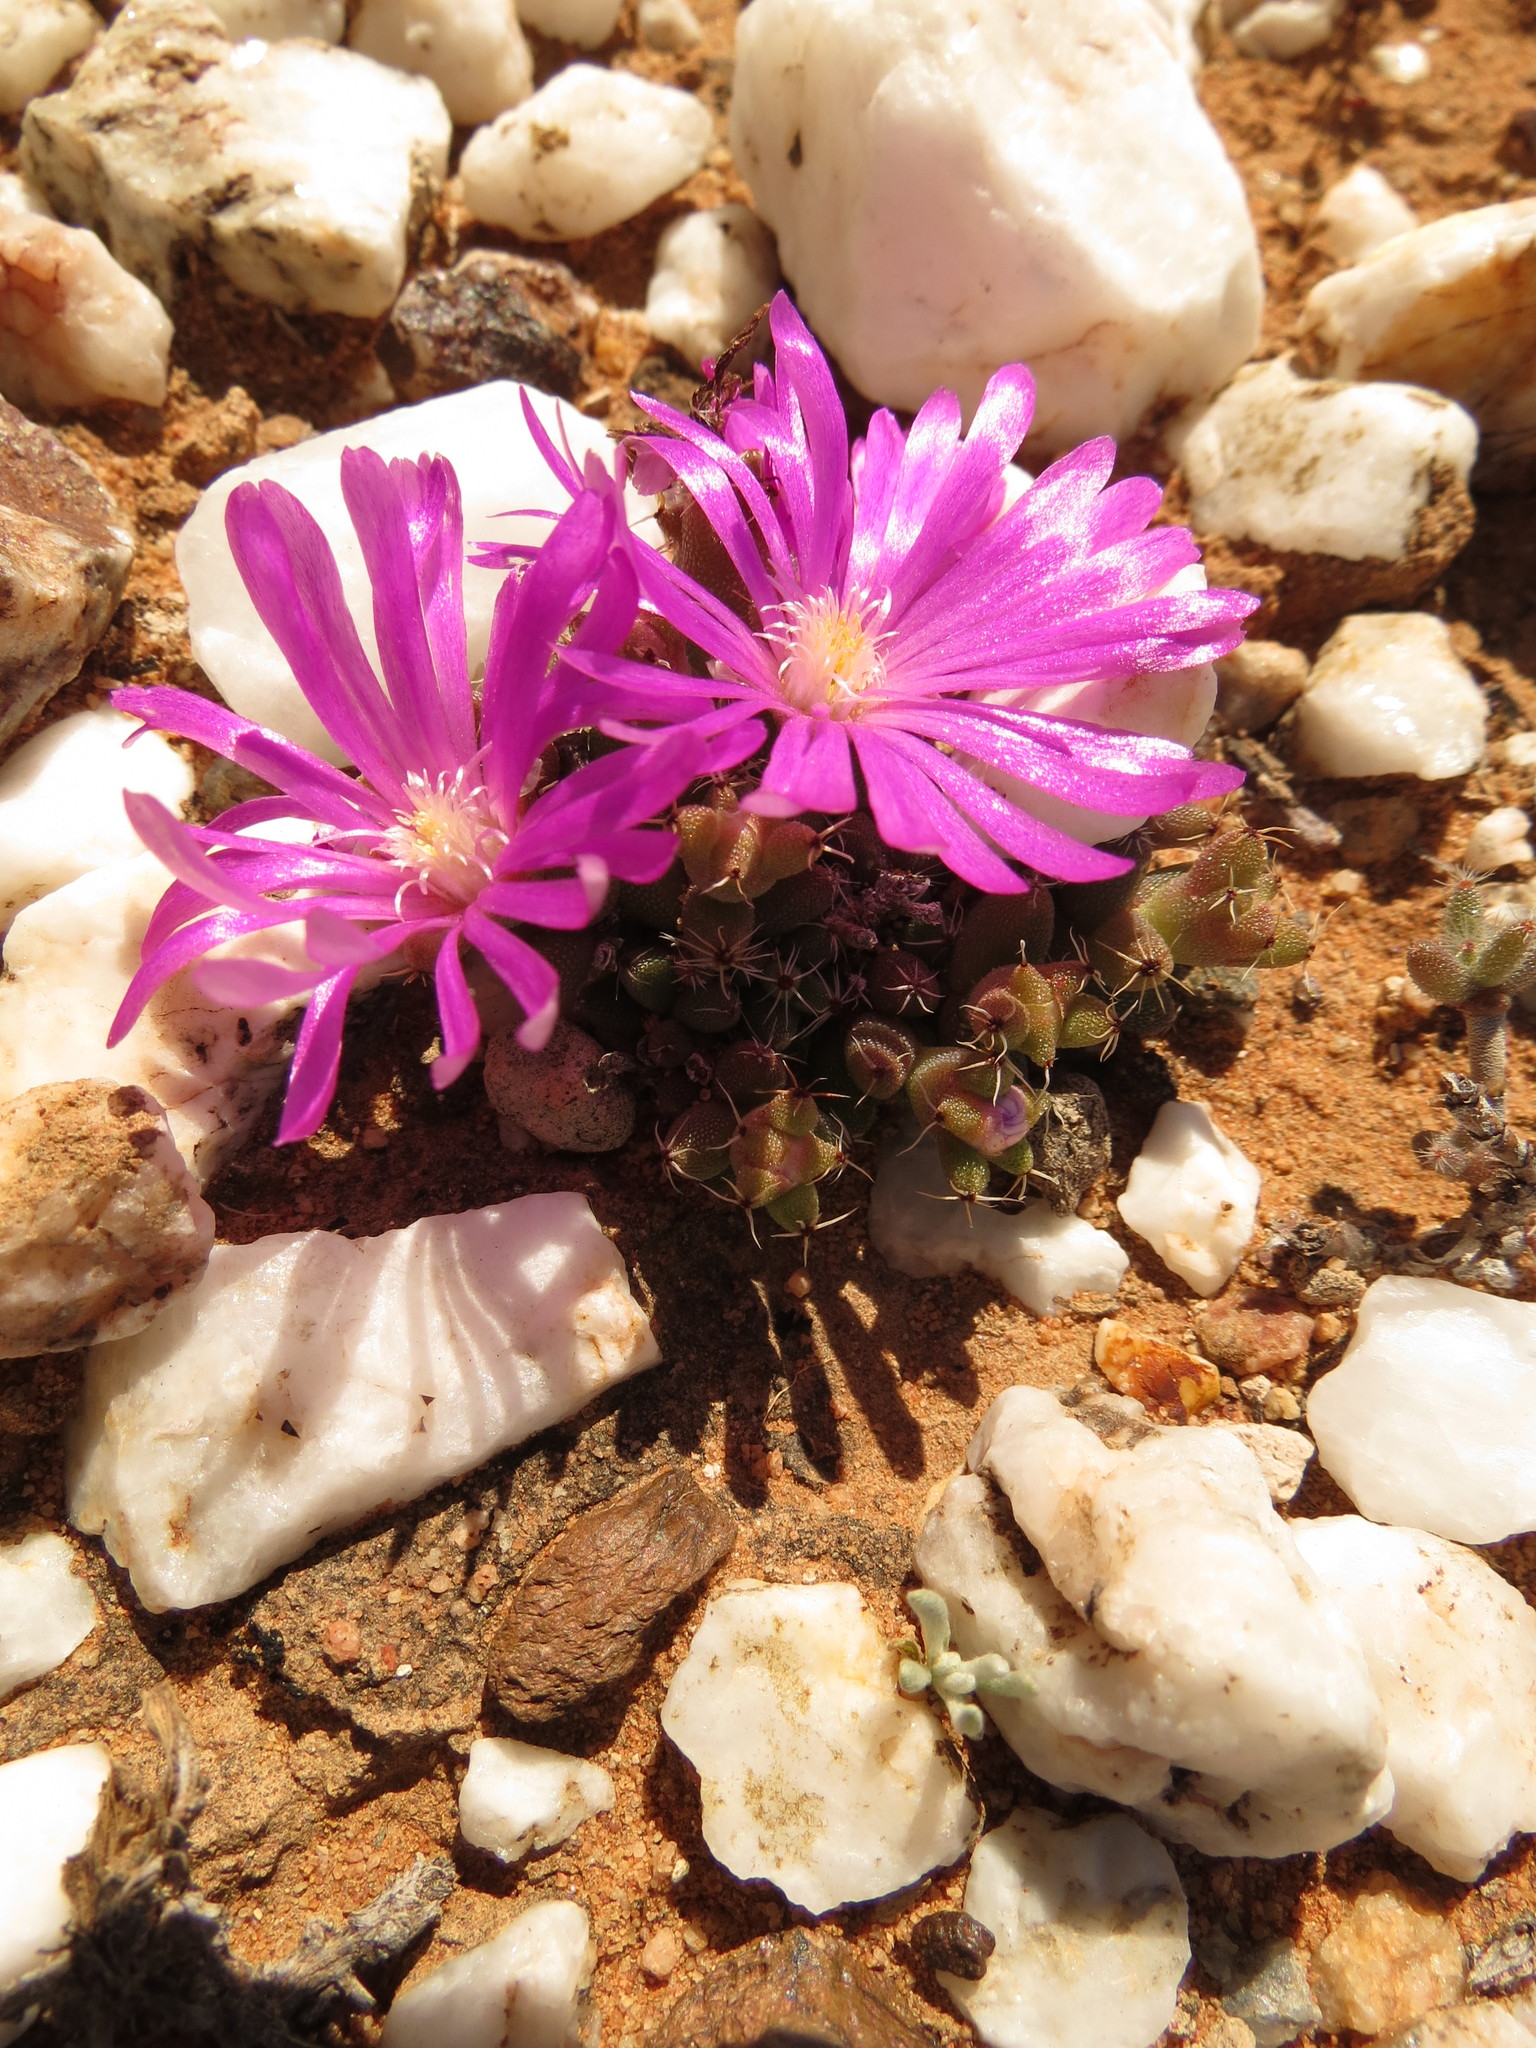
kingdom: Plantae
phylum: Tracheophyta
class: Magnoliopsida
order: Caryophyllales
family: Aizoaceae
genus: Trichodiadema
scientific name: Trichodiadema marlothii
